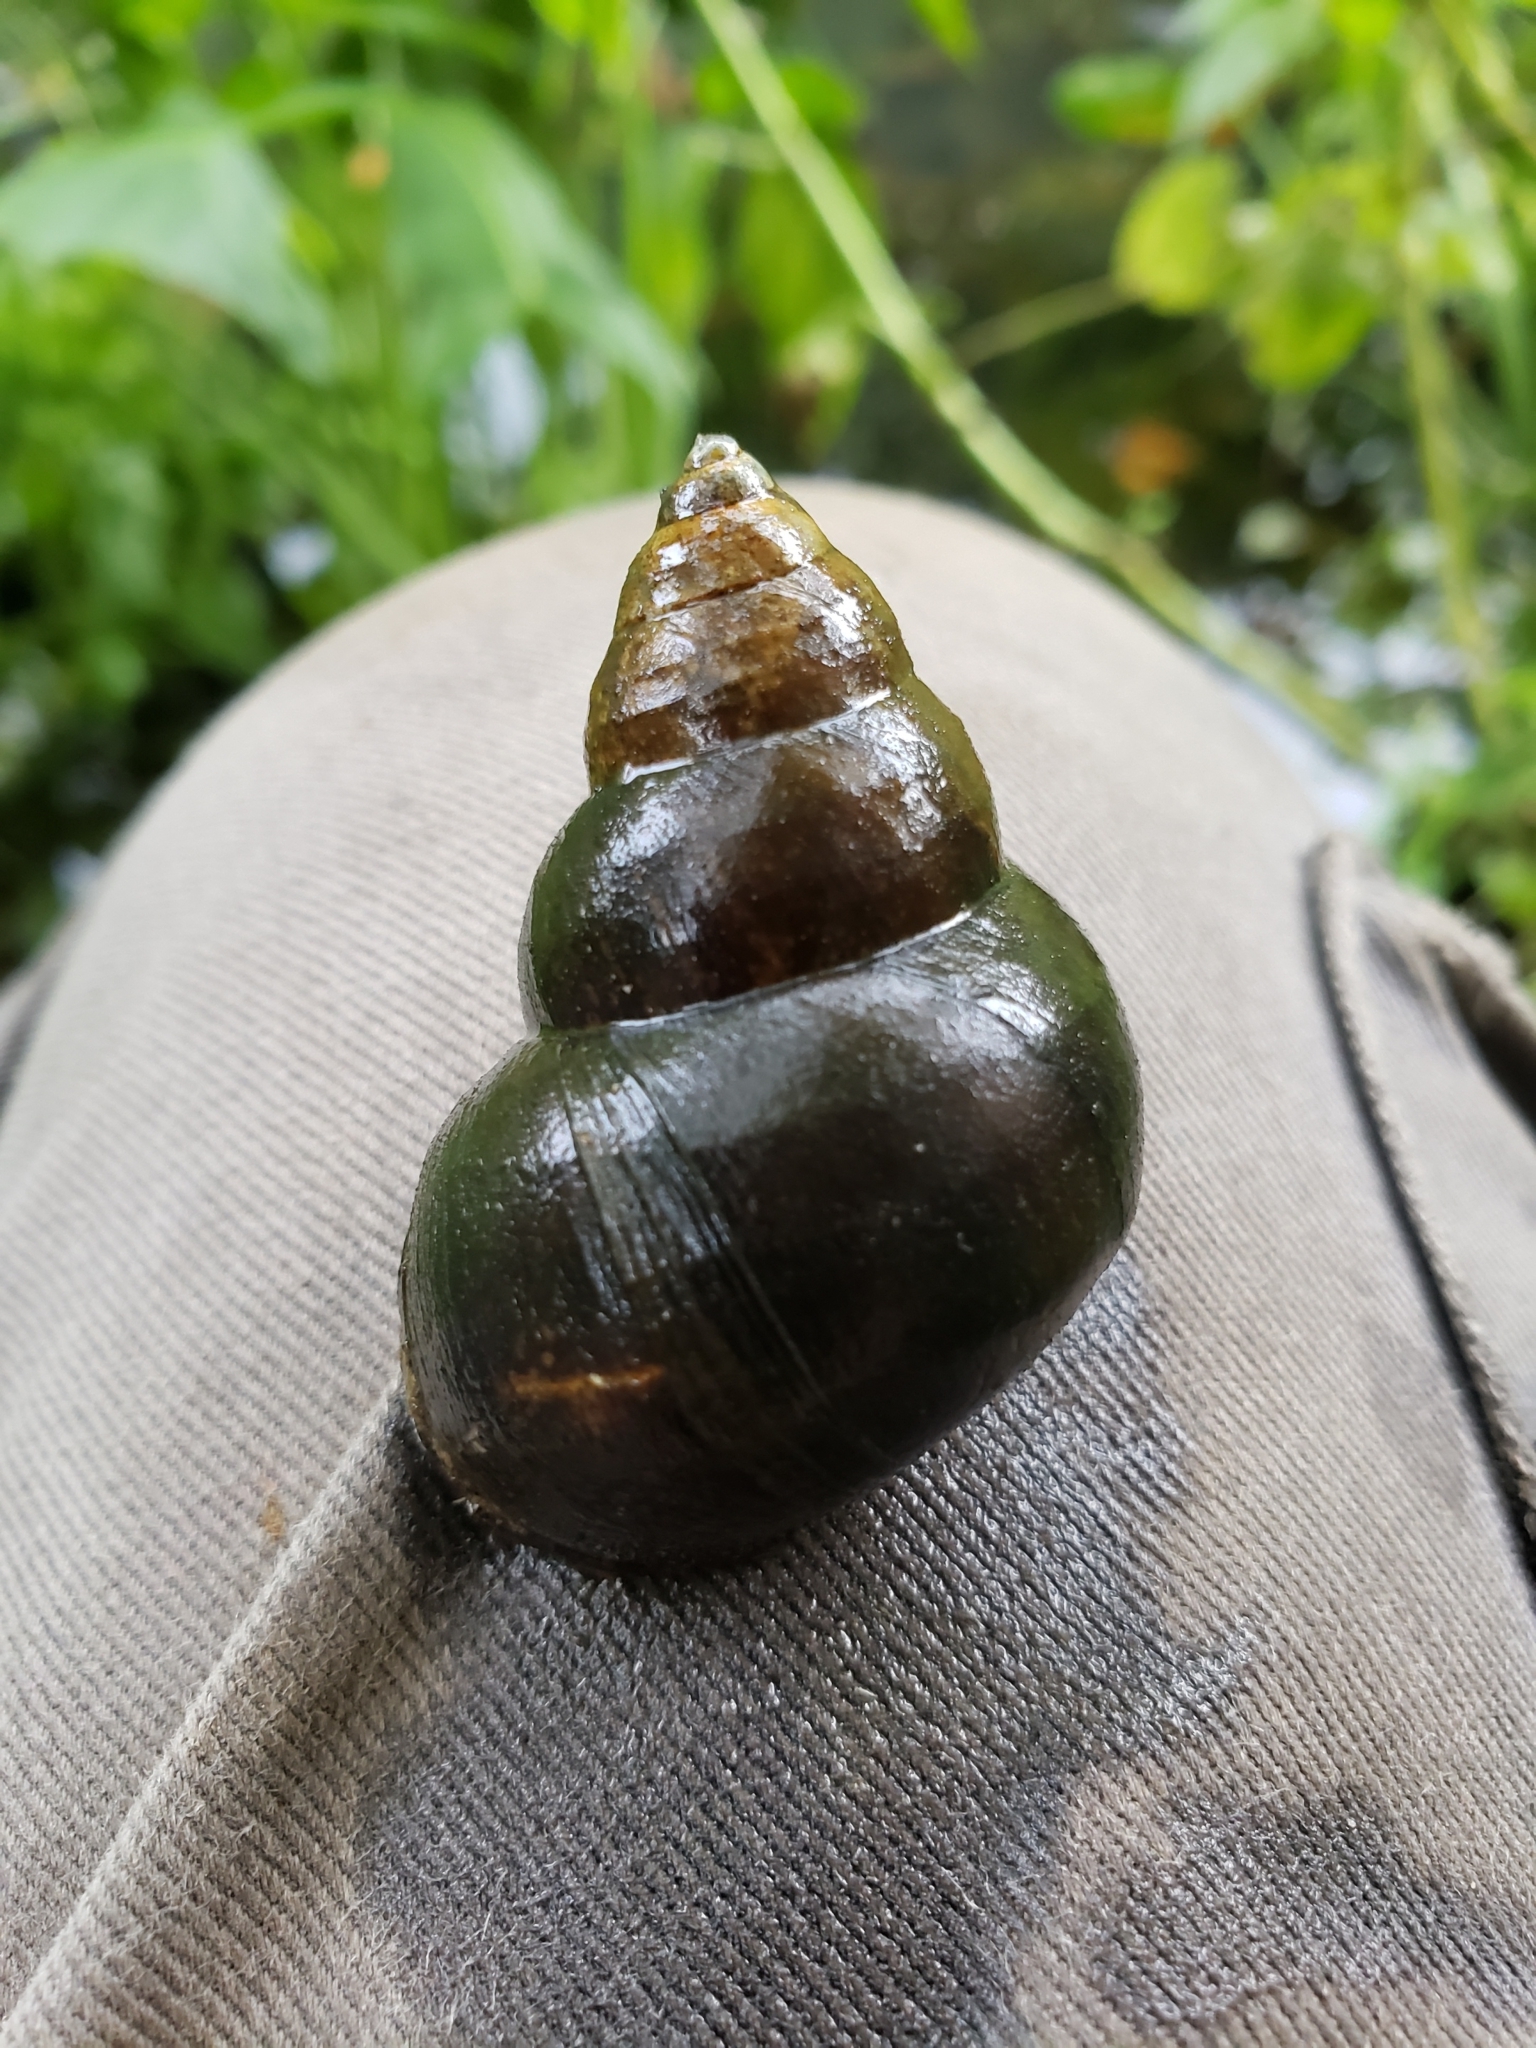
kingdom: Animalia
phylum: Mollusca
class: Gastropoda
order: Architaenioglossa
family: Viviparidae
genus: Cipangopaludina
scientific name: Cipangopaludina chinensis
